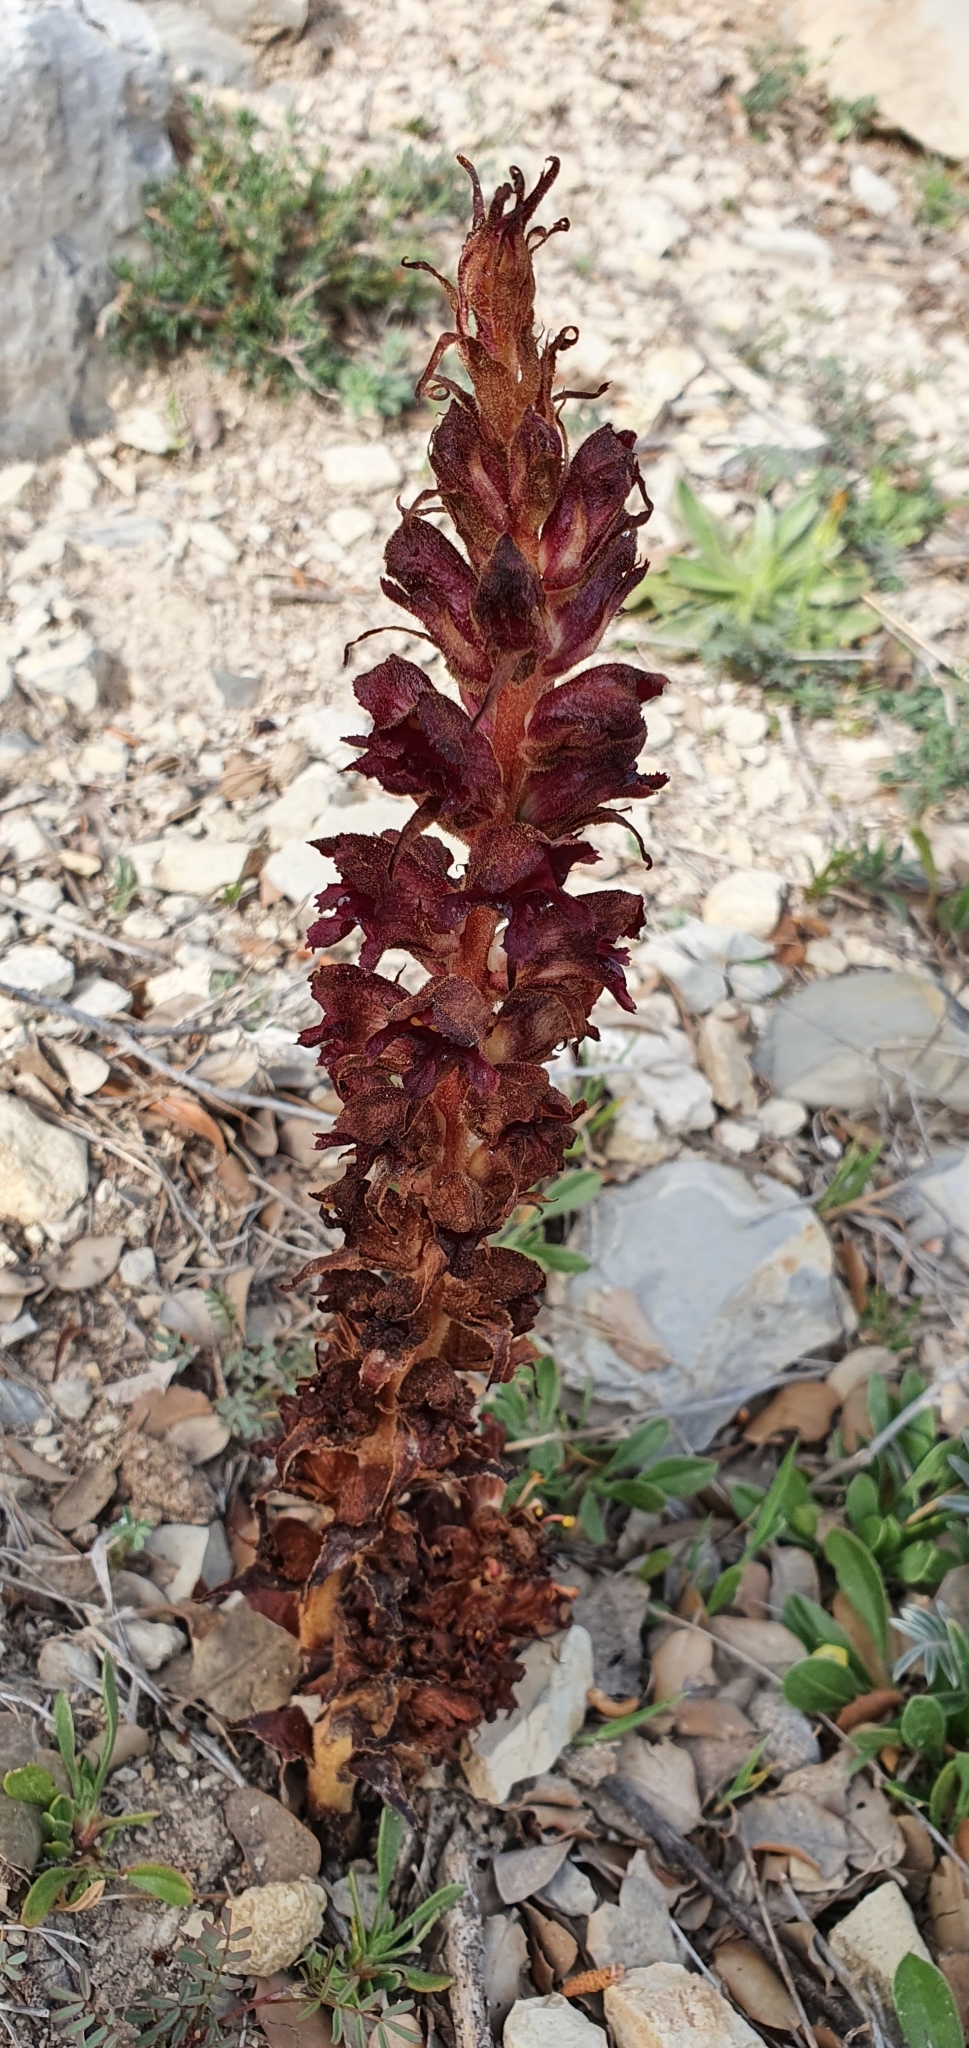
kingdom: Plantae
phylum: Tracheophyta
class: Magnoliopsida
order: Lamiales
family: Orobanchaceae
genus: Orobanche
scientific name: Orobanche variegata
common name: Variegated broomrape
